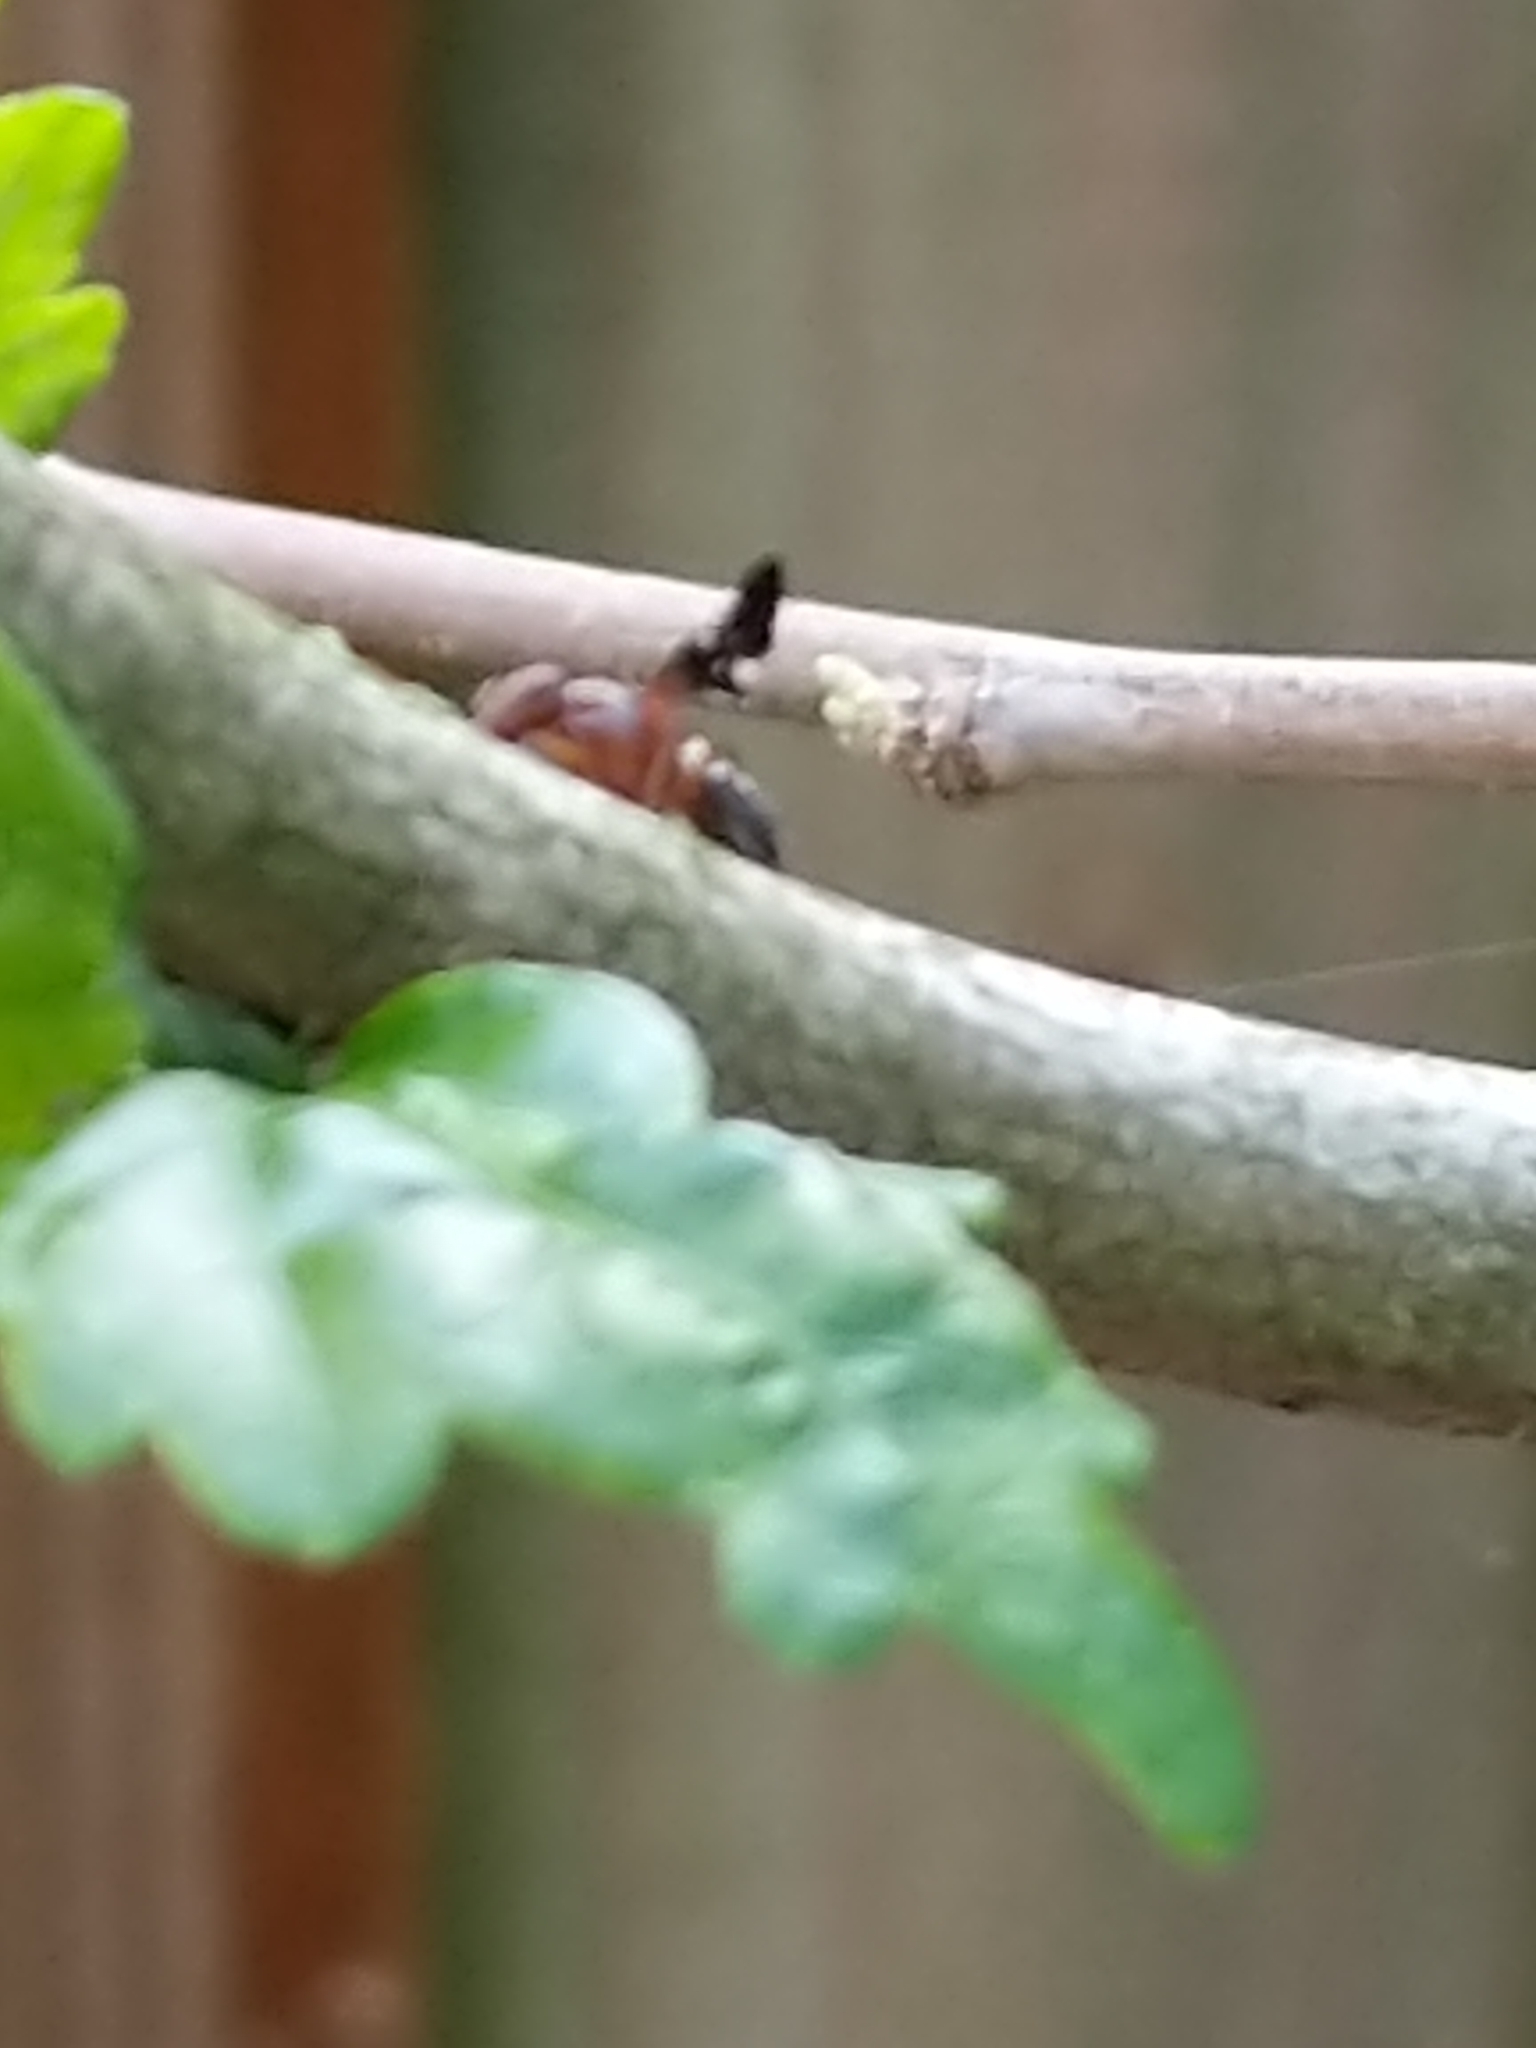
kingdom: Animalia
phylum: Arthropoda
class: Insecta
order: Diptera
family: Ulidiidae
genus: Delphinia
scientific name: Delphinia picta
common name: Common picture-winged fly
